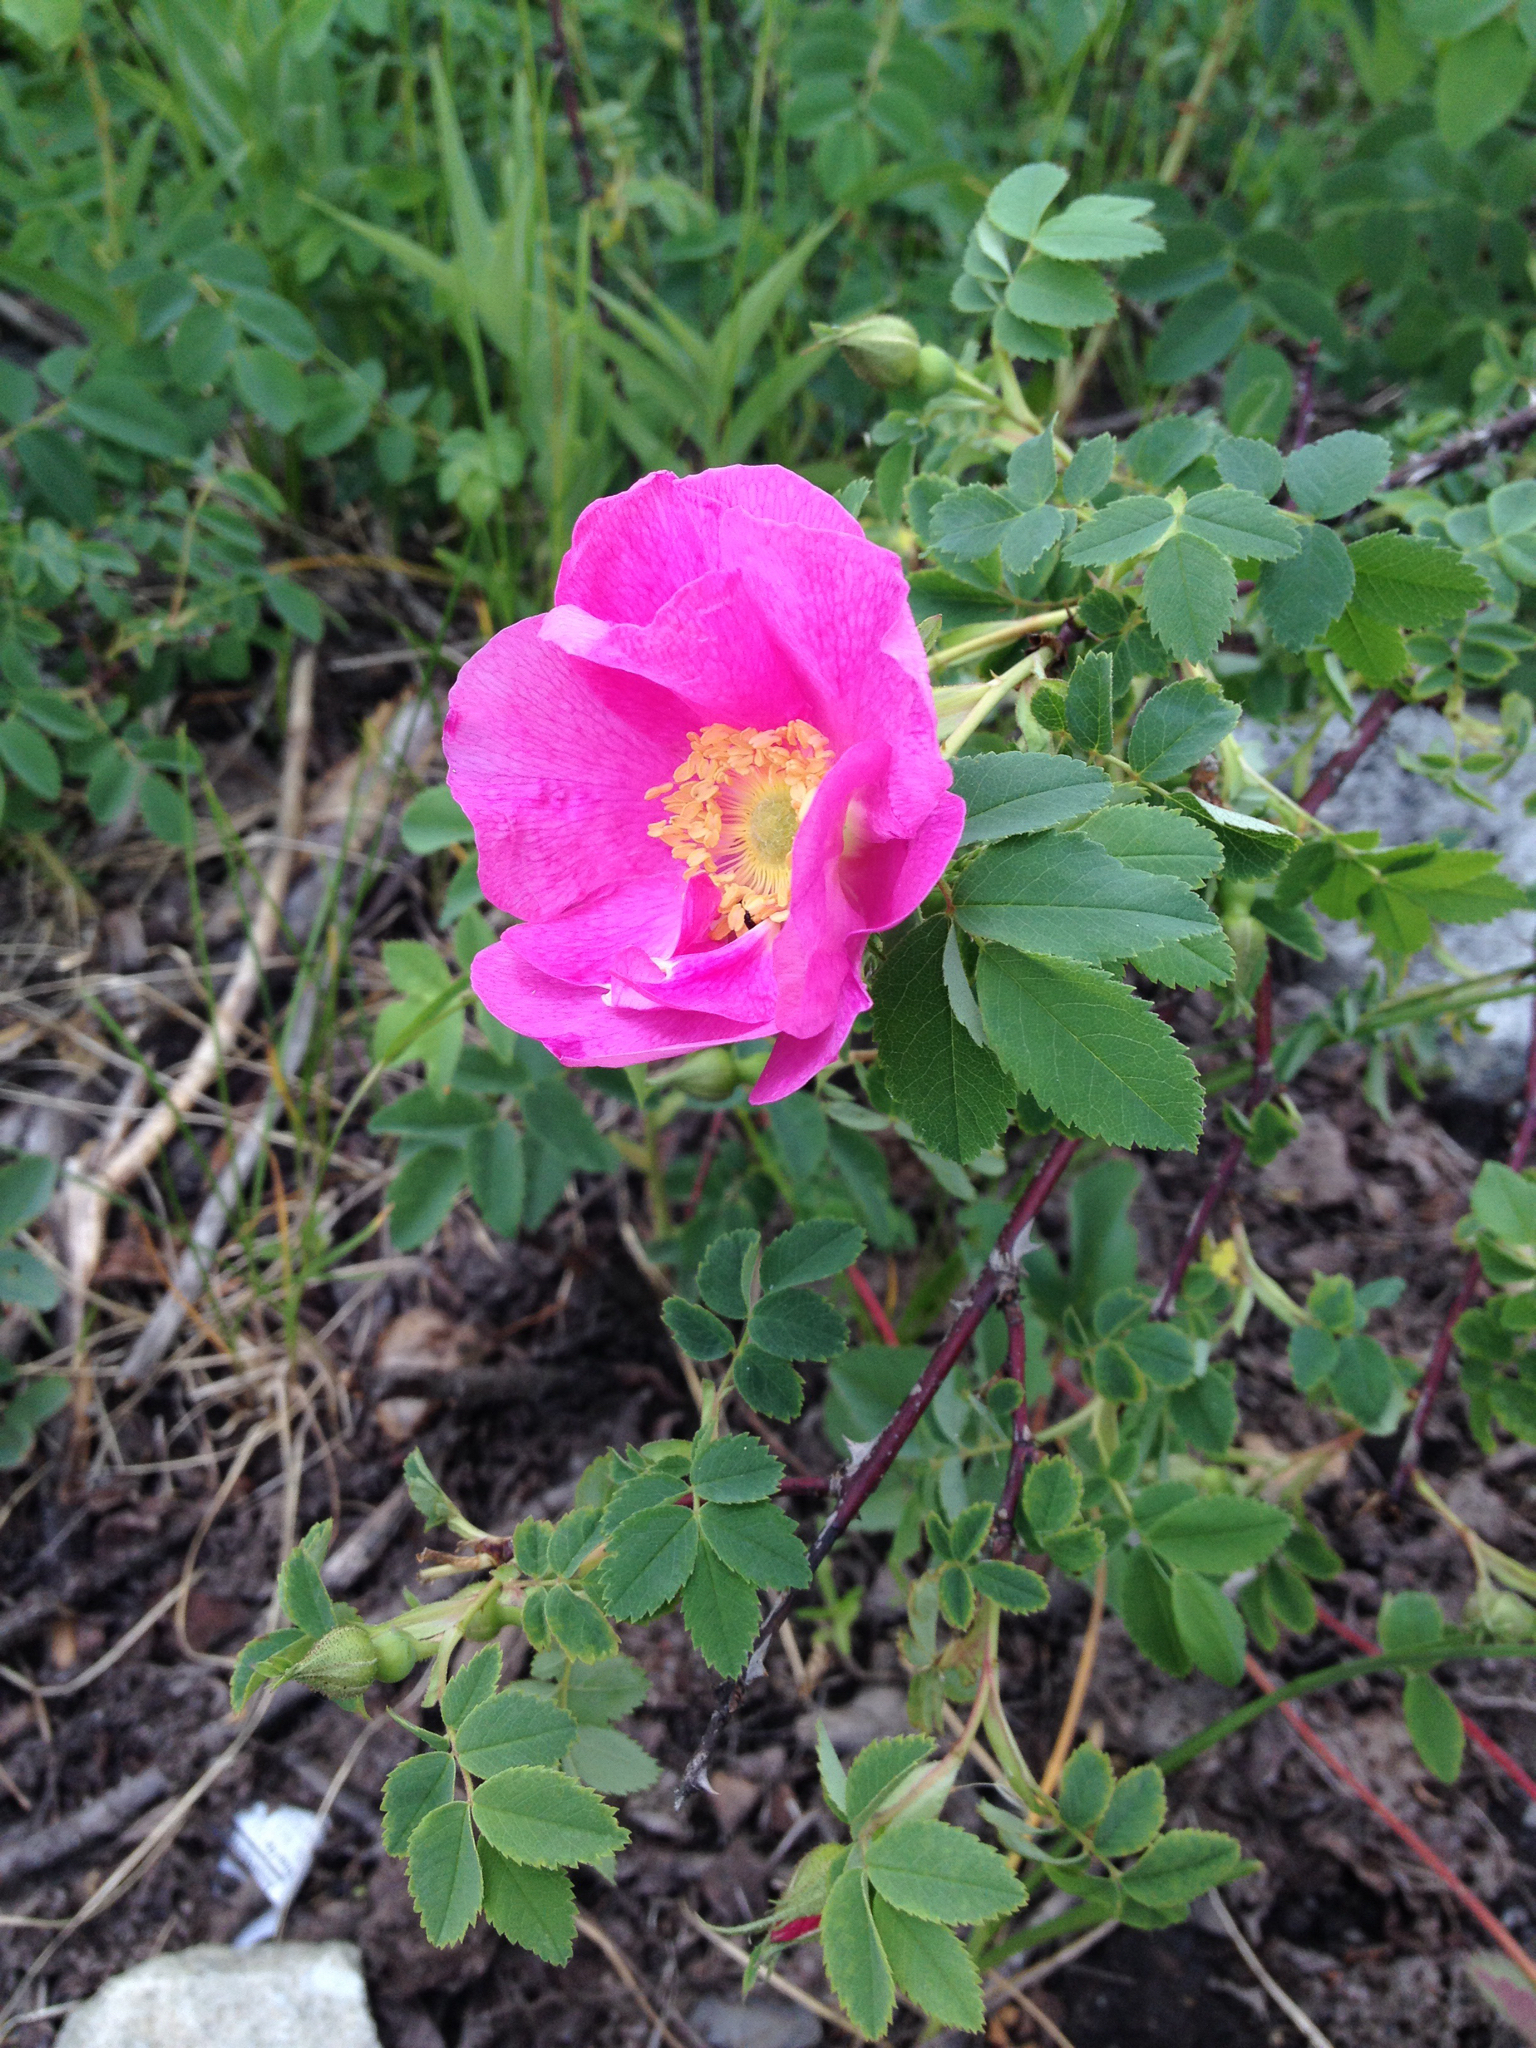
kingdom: Plantae
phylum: Tracheophyta
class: Magnoliopsida
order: Rosales
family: Rosaceae
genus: Rosa
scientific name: Rosa woodsii
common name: Woods's rose
